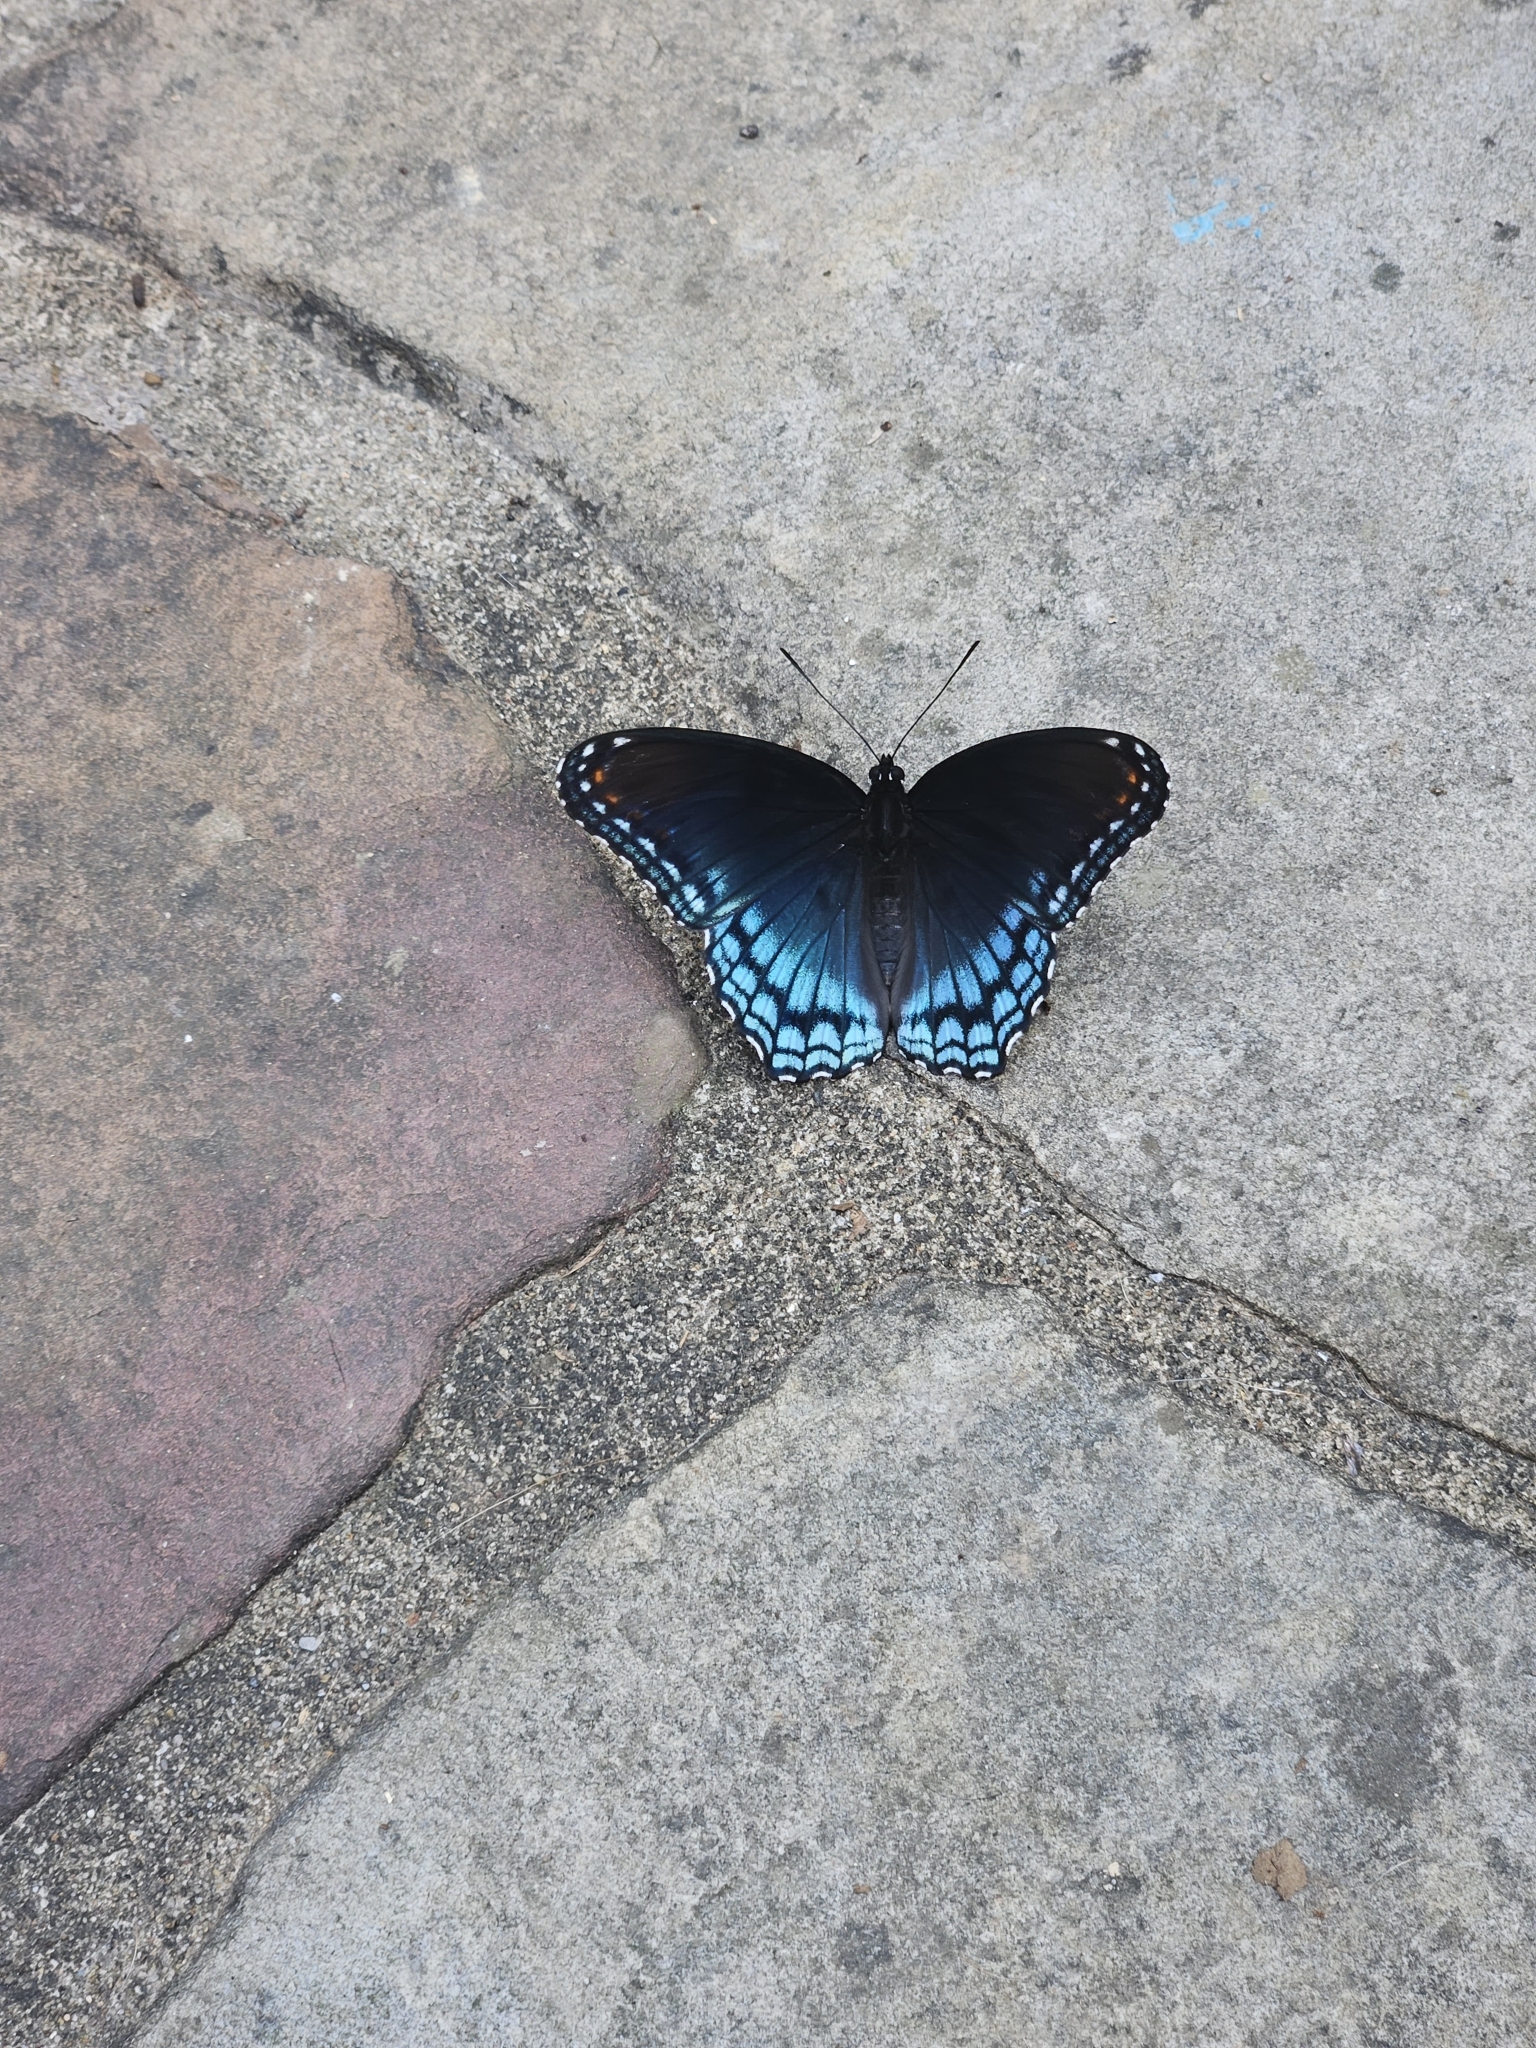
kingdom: Animalia
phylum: Arthropoda
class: Insecta
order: Lepidoptera
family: Nymphalidae
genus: Limenitis
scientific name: Limenitis astyanax
